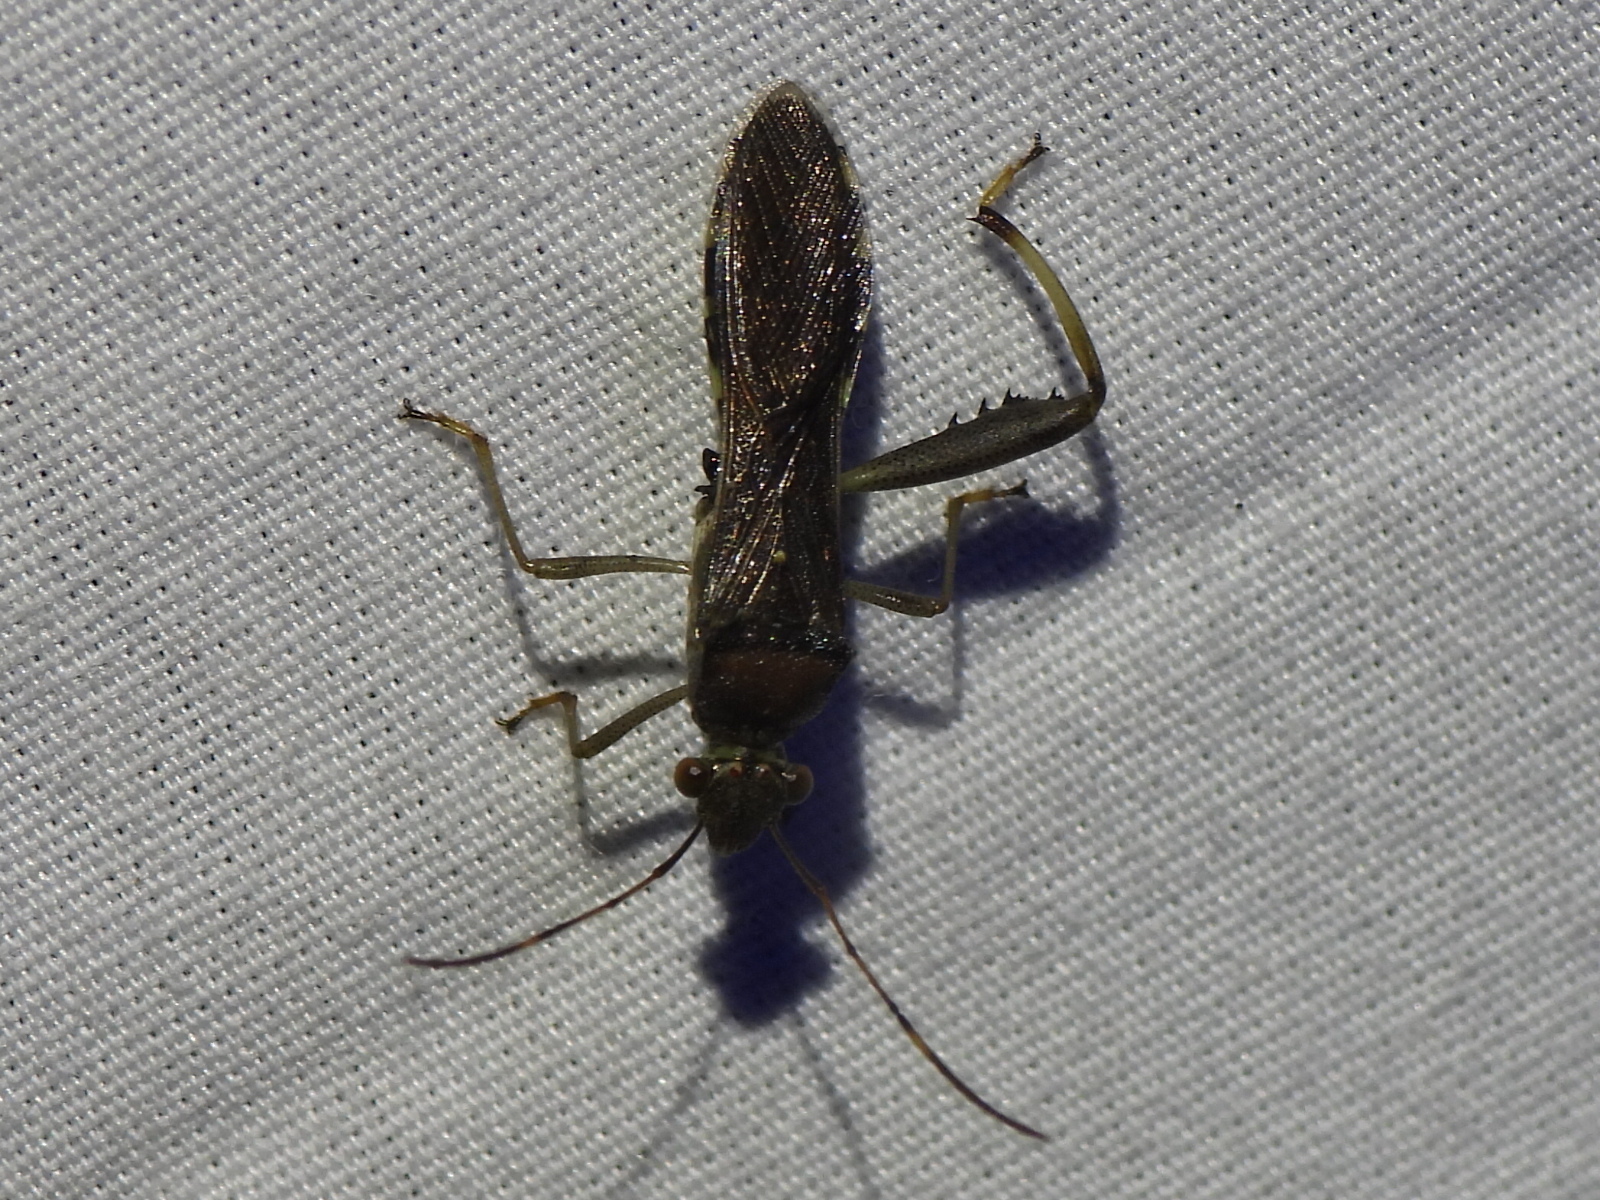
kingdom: Animalia
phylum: Arthropoda
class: Insecta
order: Hemiptera
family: Alydidae
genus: Hyalymenus
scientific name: Hyalymenus tarsatus
